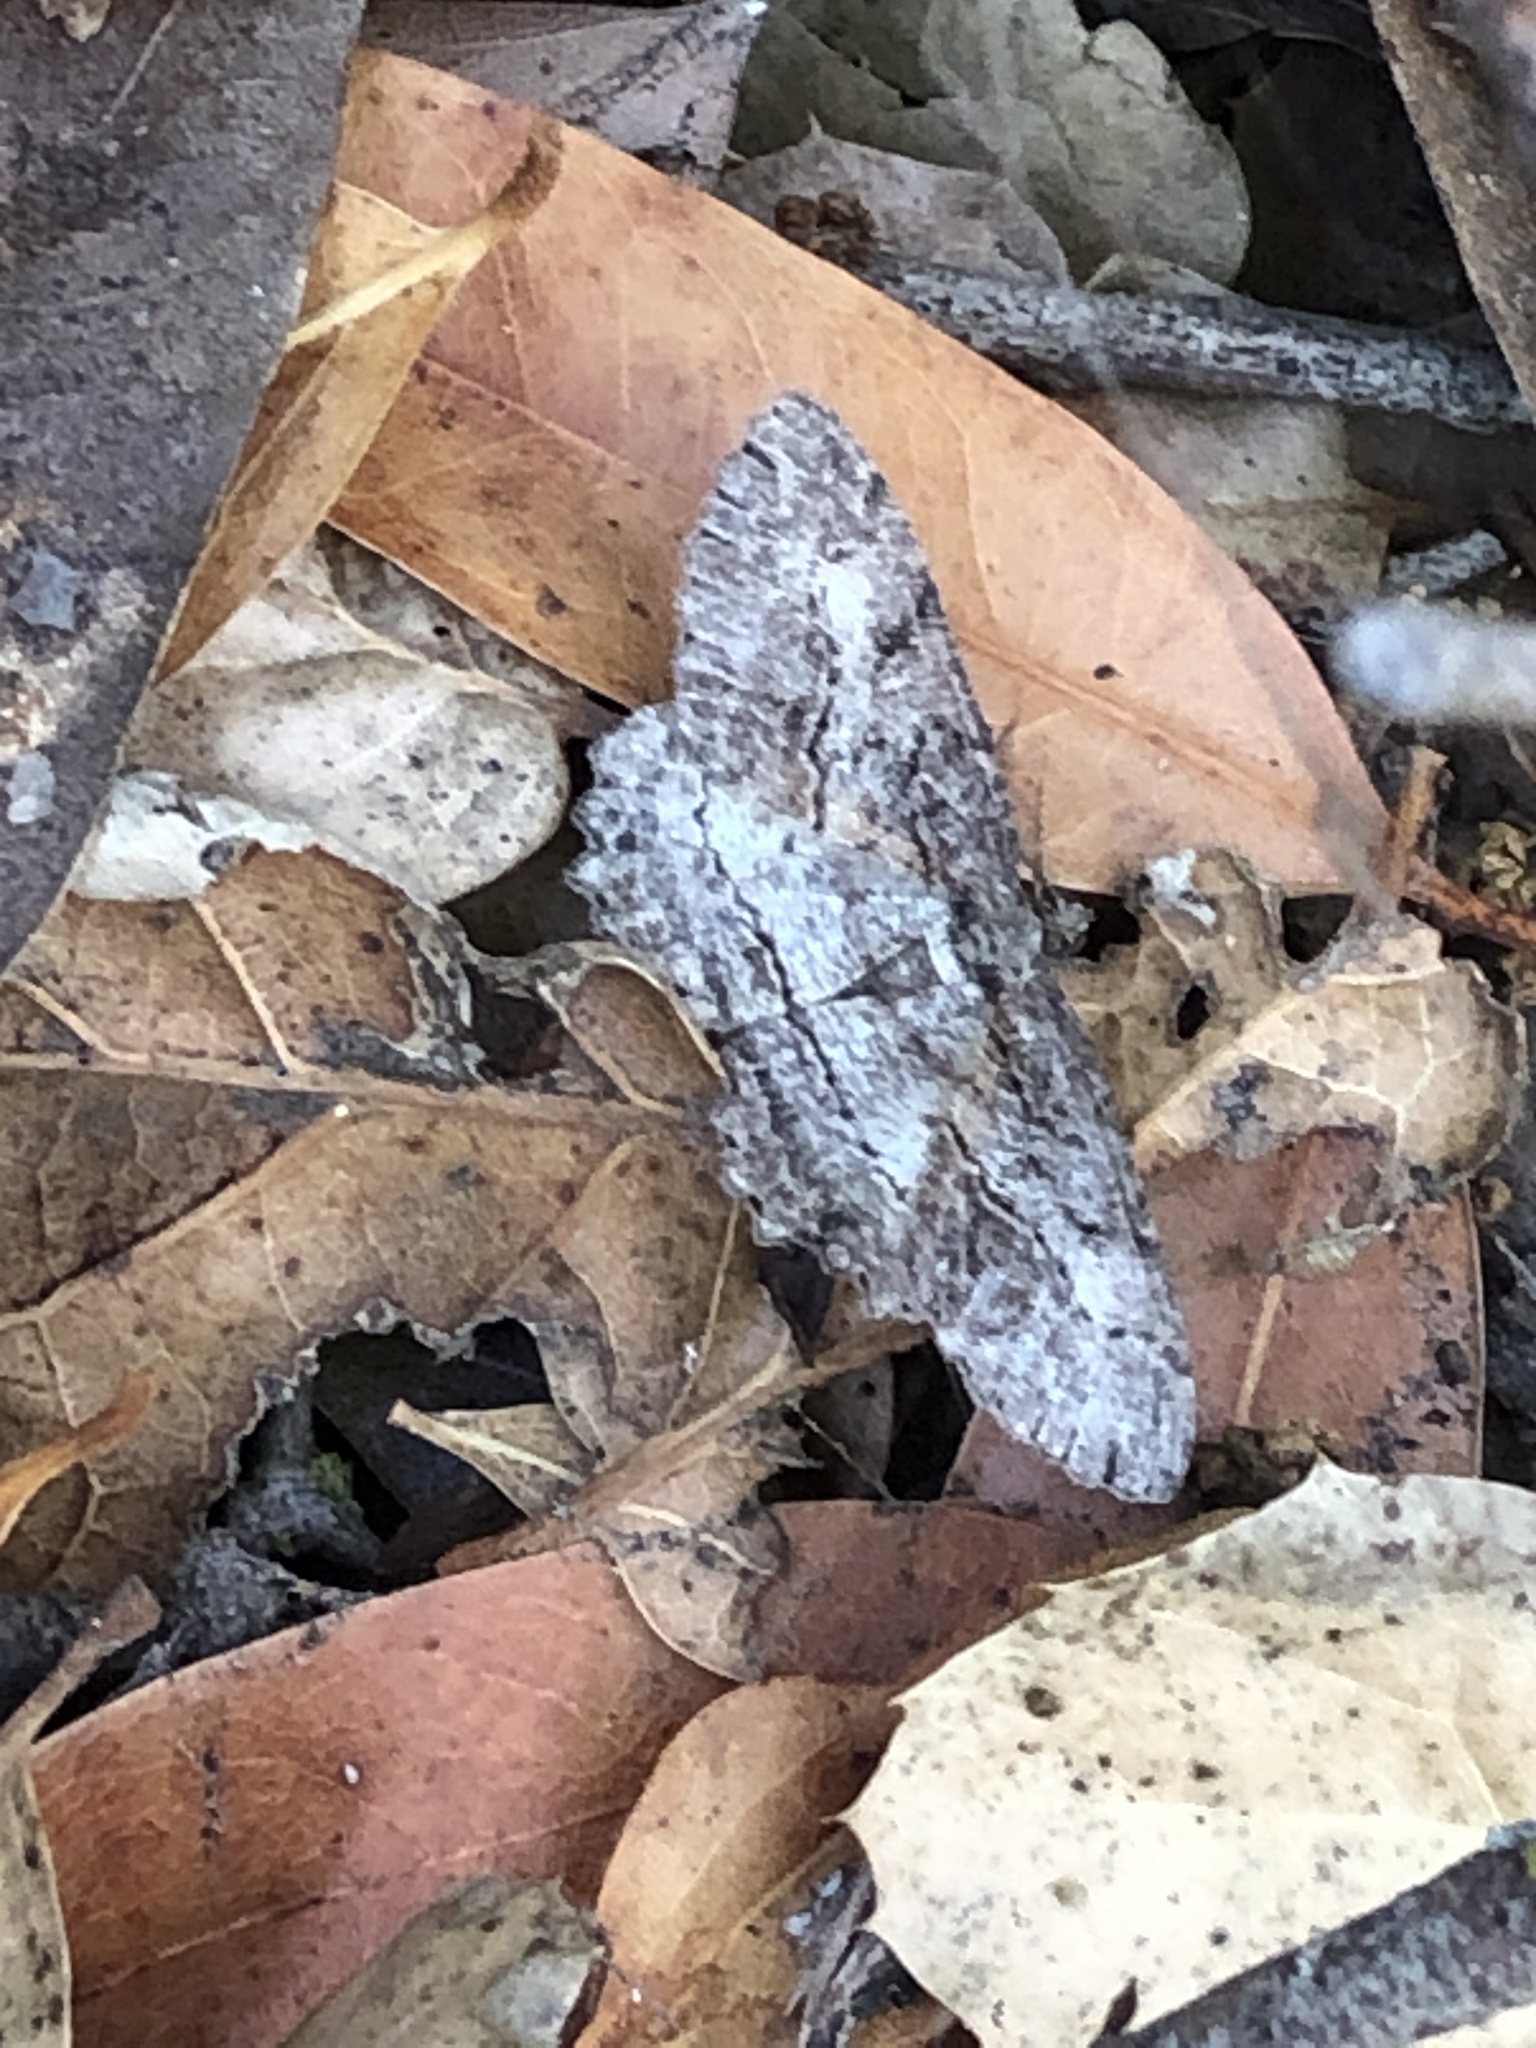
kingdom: Animalia
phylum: Arthropoda
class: Insecta
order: Lepidoptera
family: Geometridae
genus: Neoalcis
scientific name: Neoalcis californiaria
